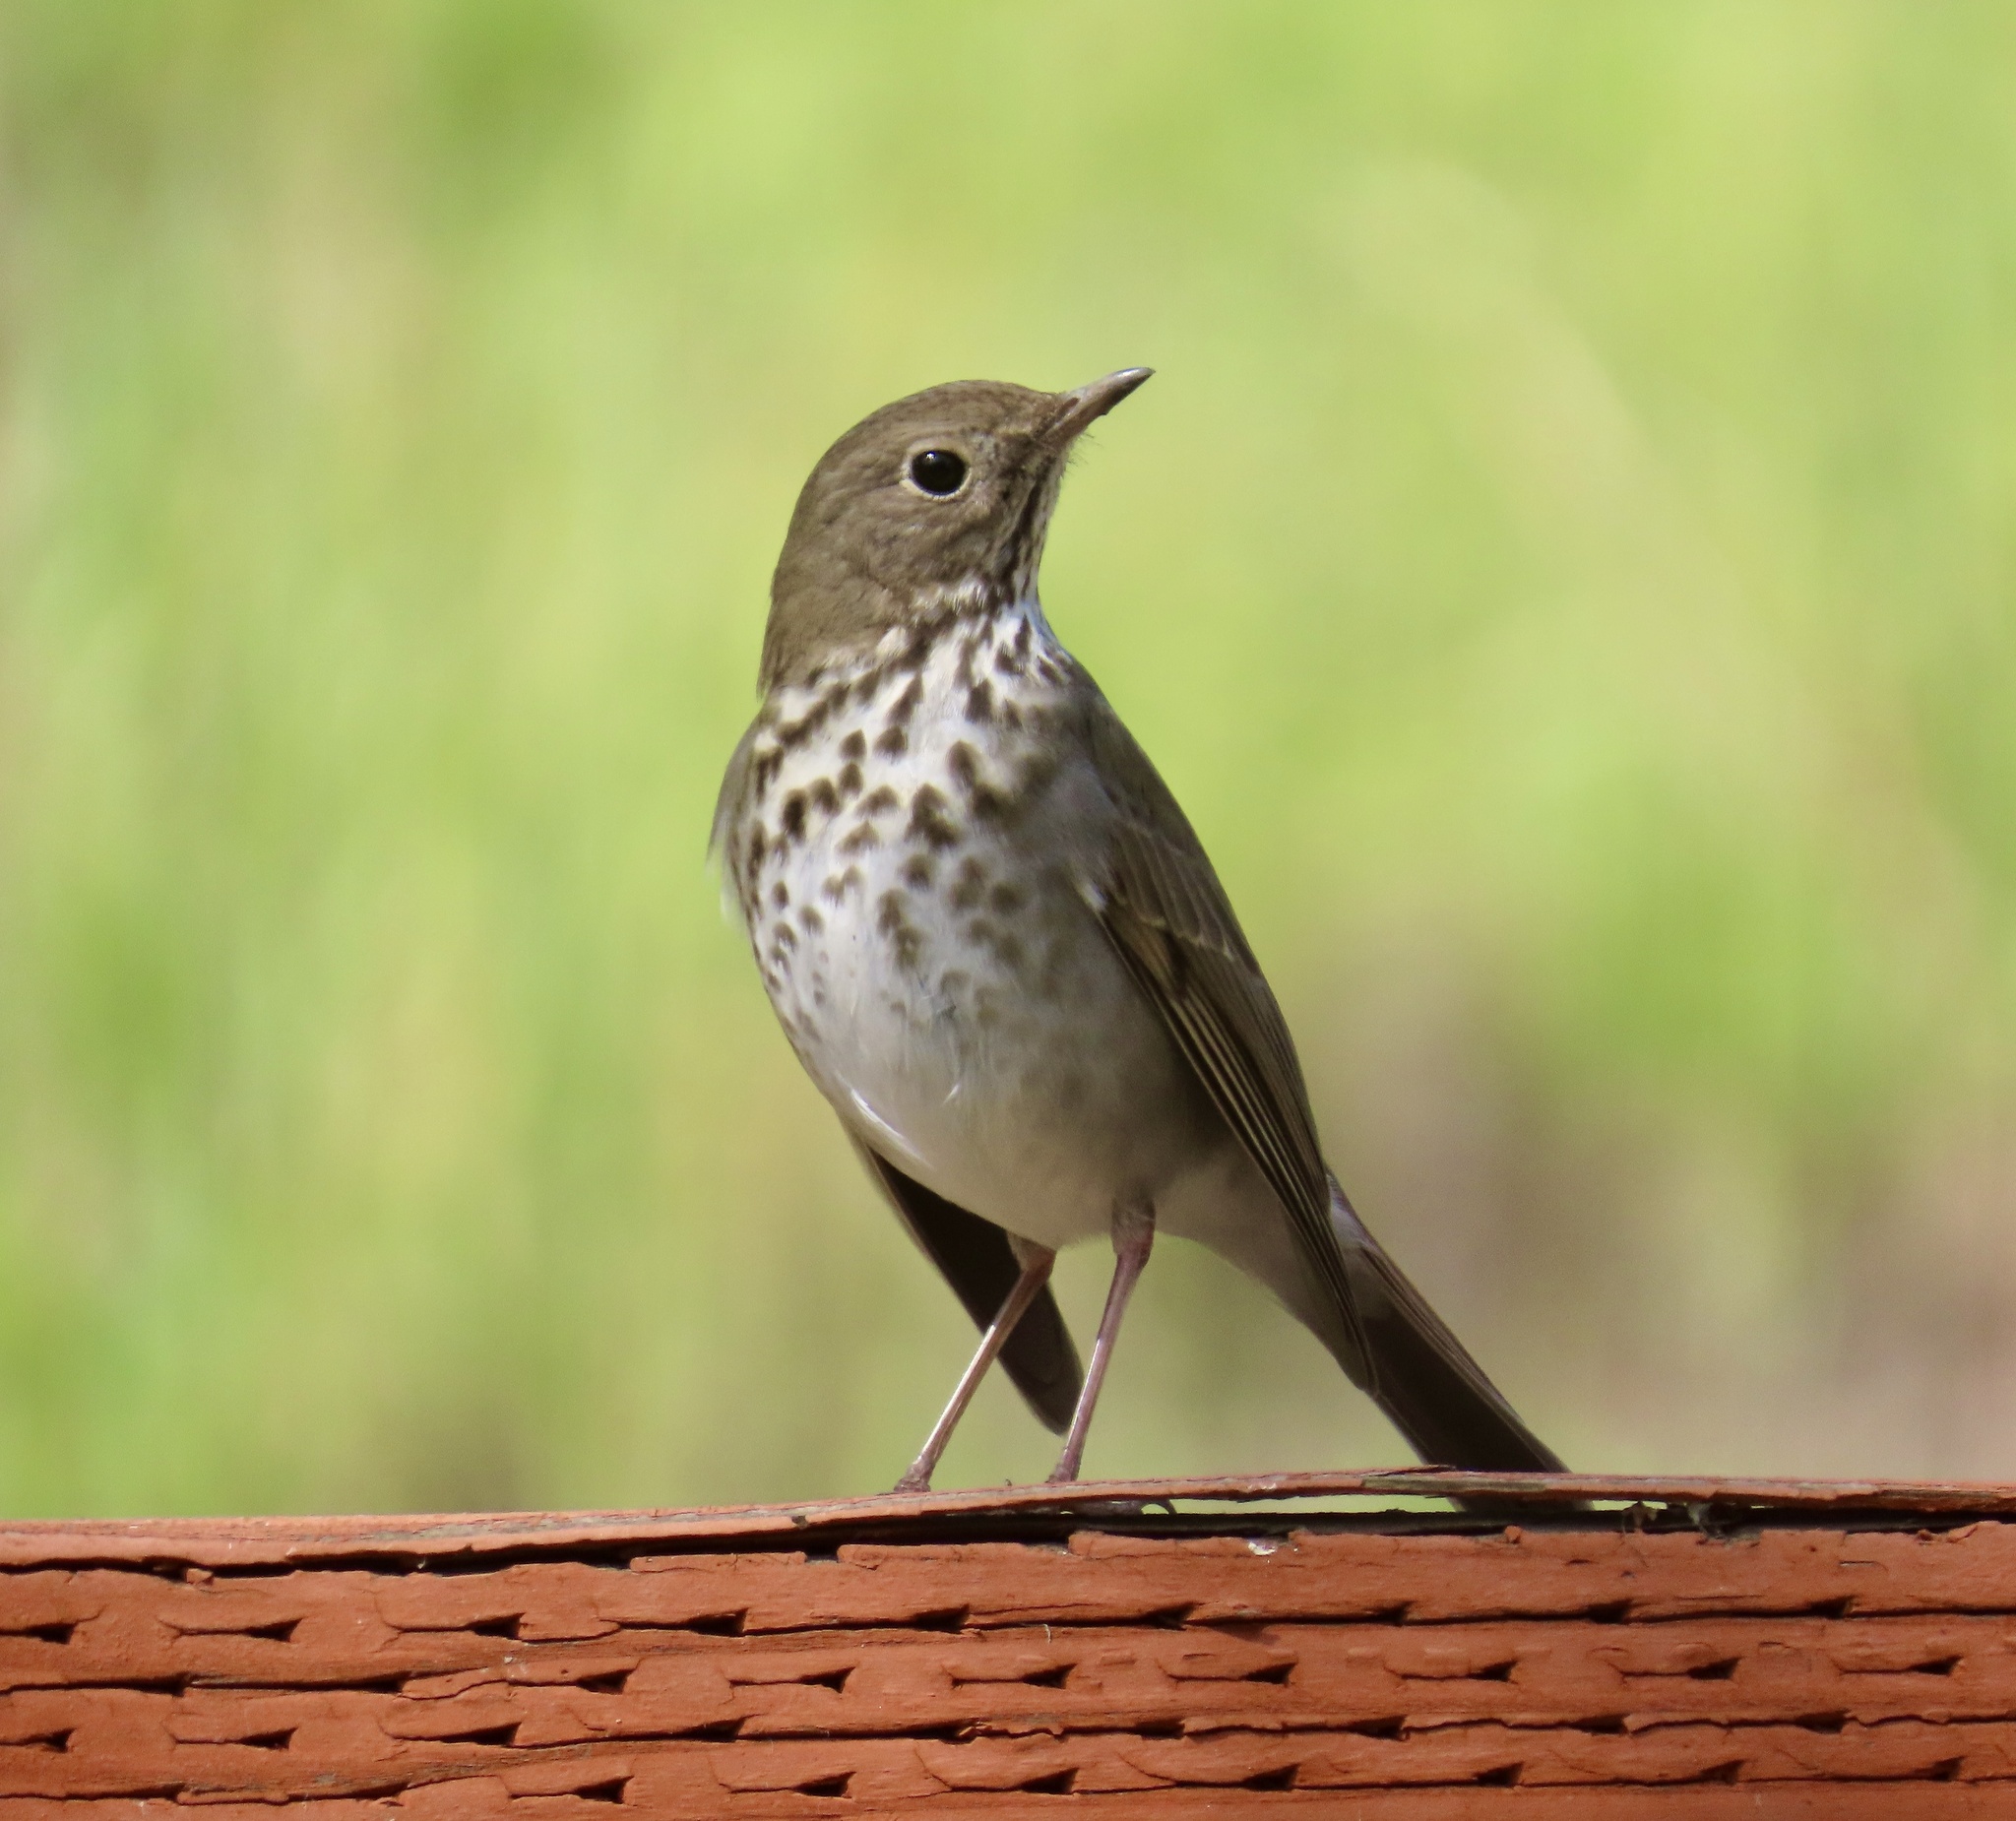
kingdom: Animalia
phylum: Chordata
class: Aves
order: Passeriformes
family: Turdidae
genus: Catharus
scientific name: Catharus guttatus
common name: Hermit thrush
